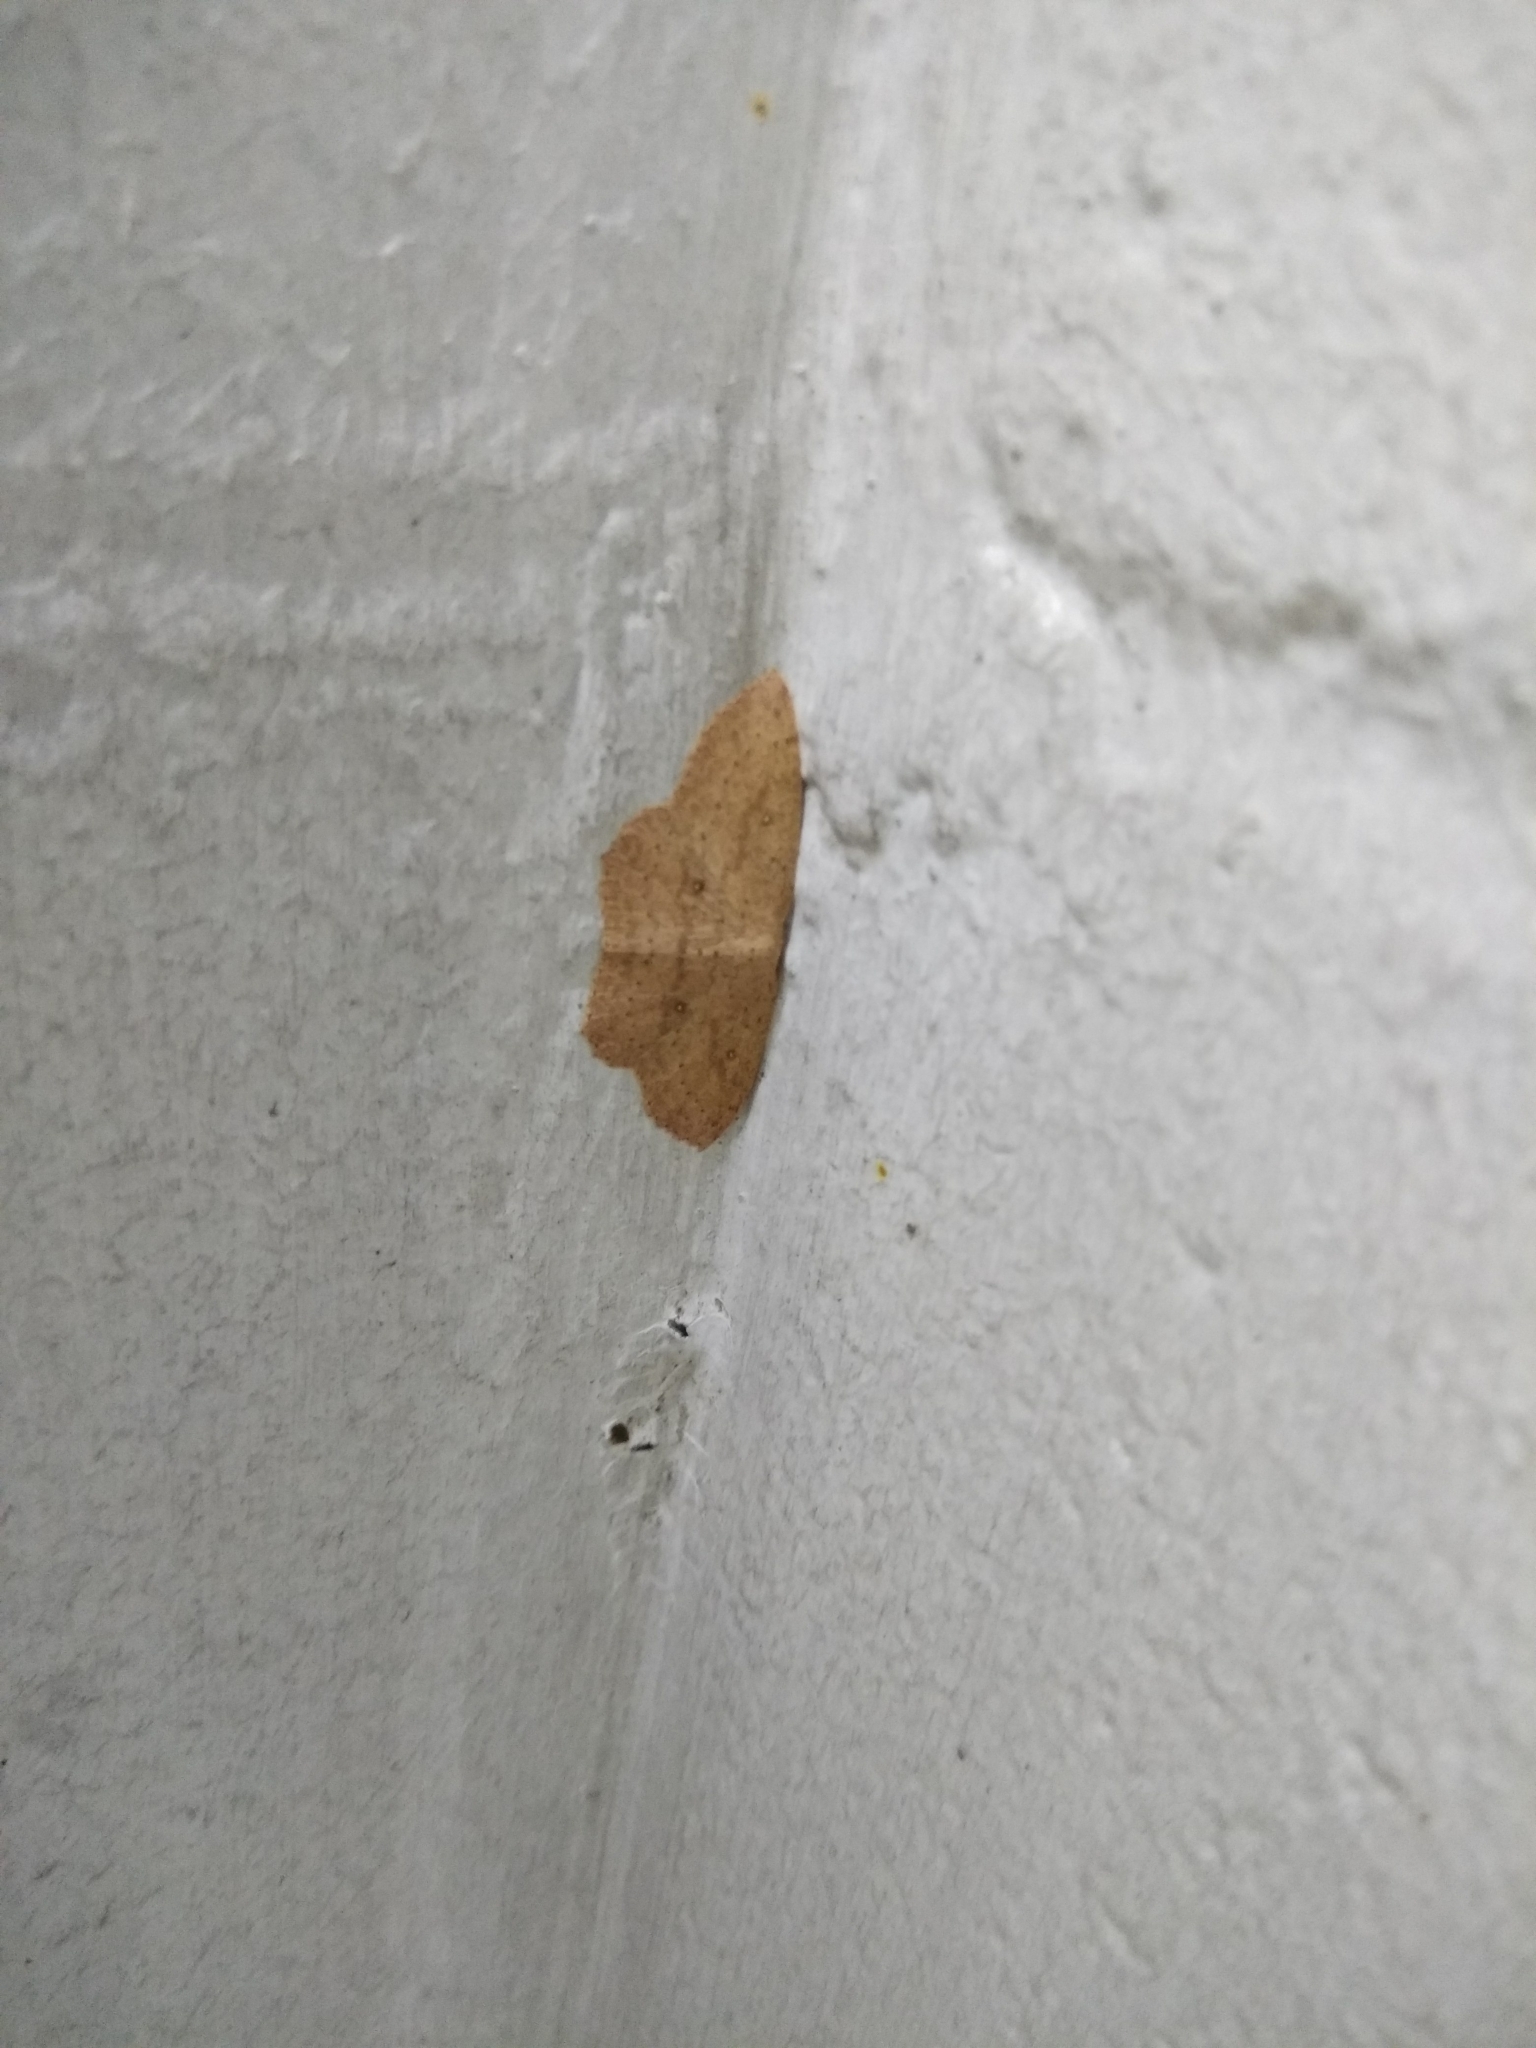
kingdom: Animalia
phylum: Arthropoda
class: Insecta
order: Lepidoptera
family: Geometridae
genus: Cyclophora
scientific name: Cyclophora myrtaria
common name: Waxmyrtle wave moth
